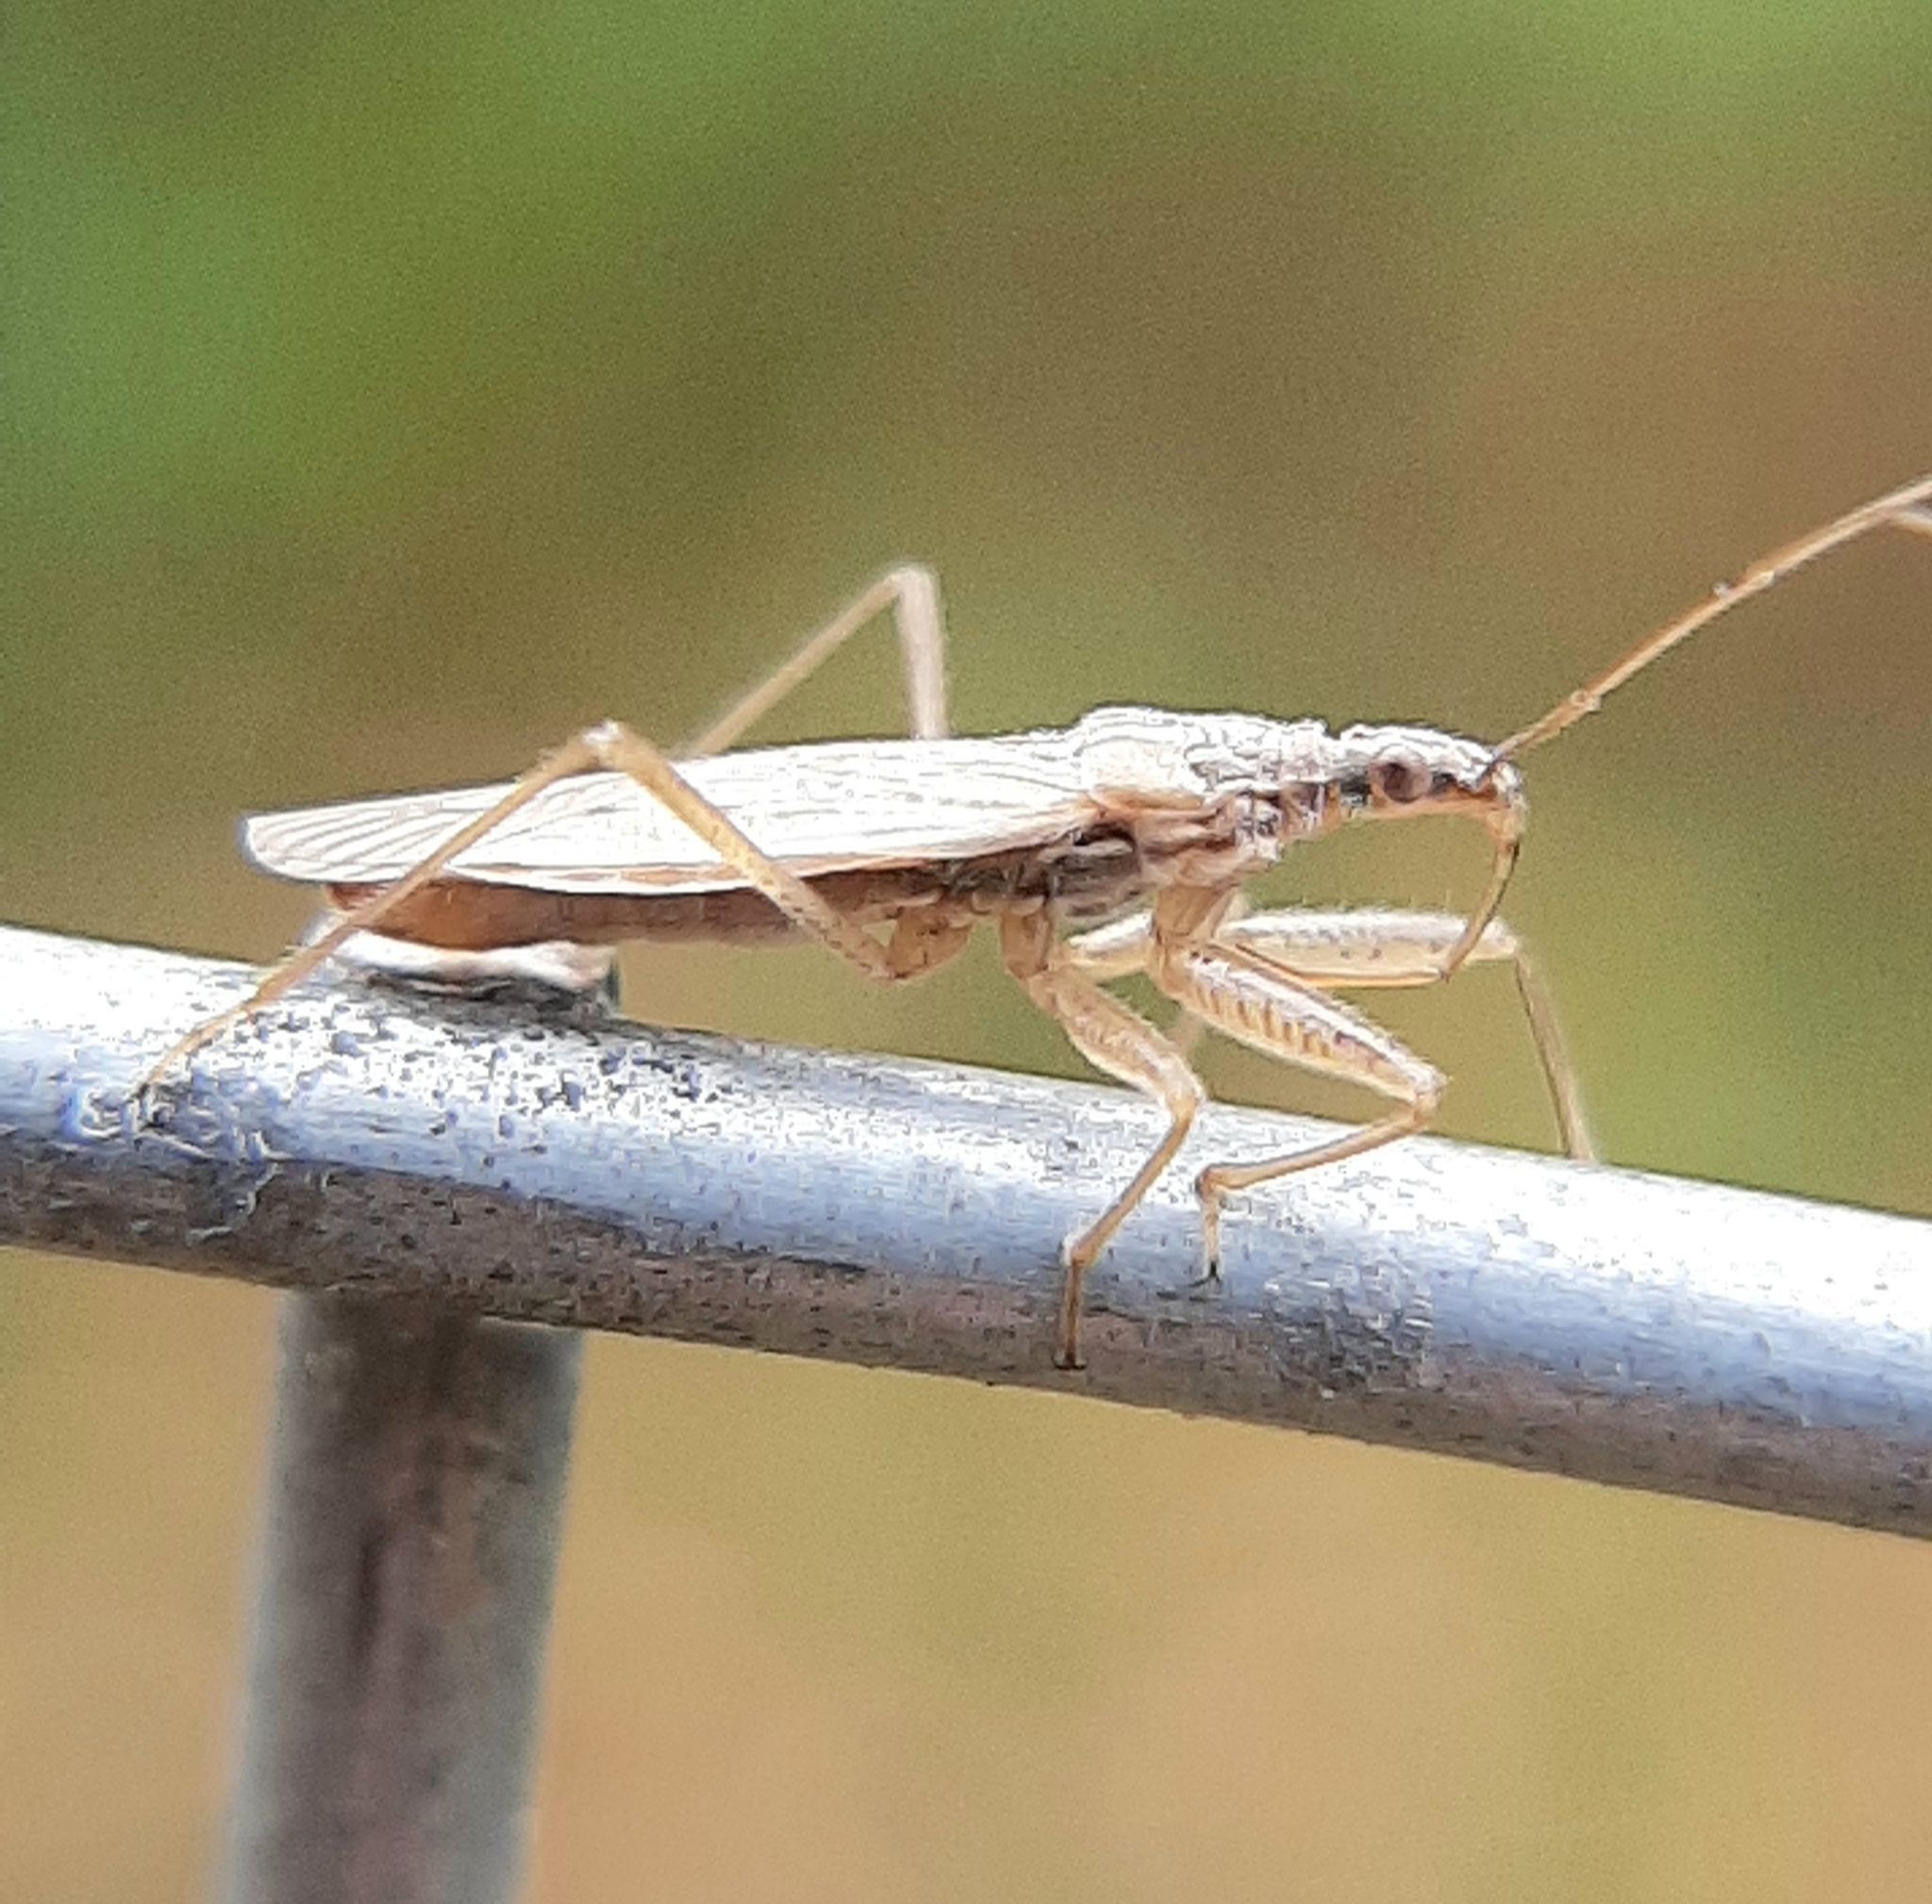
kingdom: Animalia
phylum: Arthropoda
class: Insecta
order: Hemiptera
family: Nabidae
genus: Nabis
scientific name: Nabis americoferus
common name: Common damsel bug
